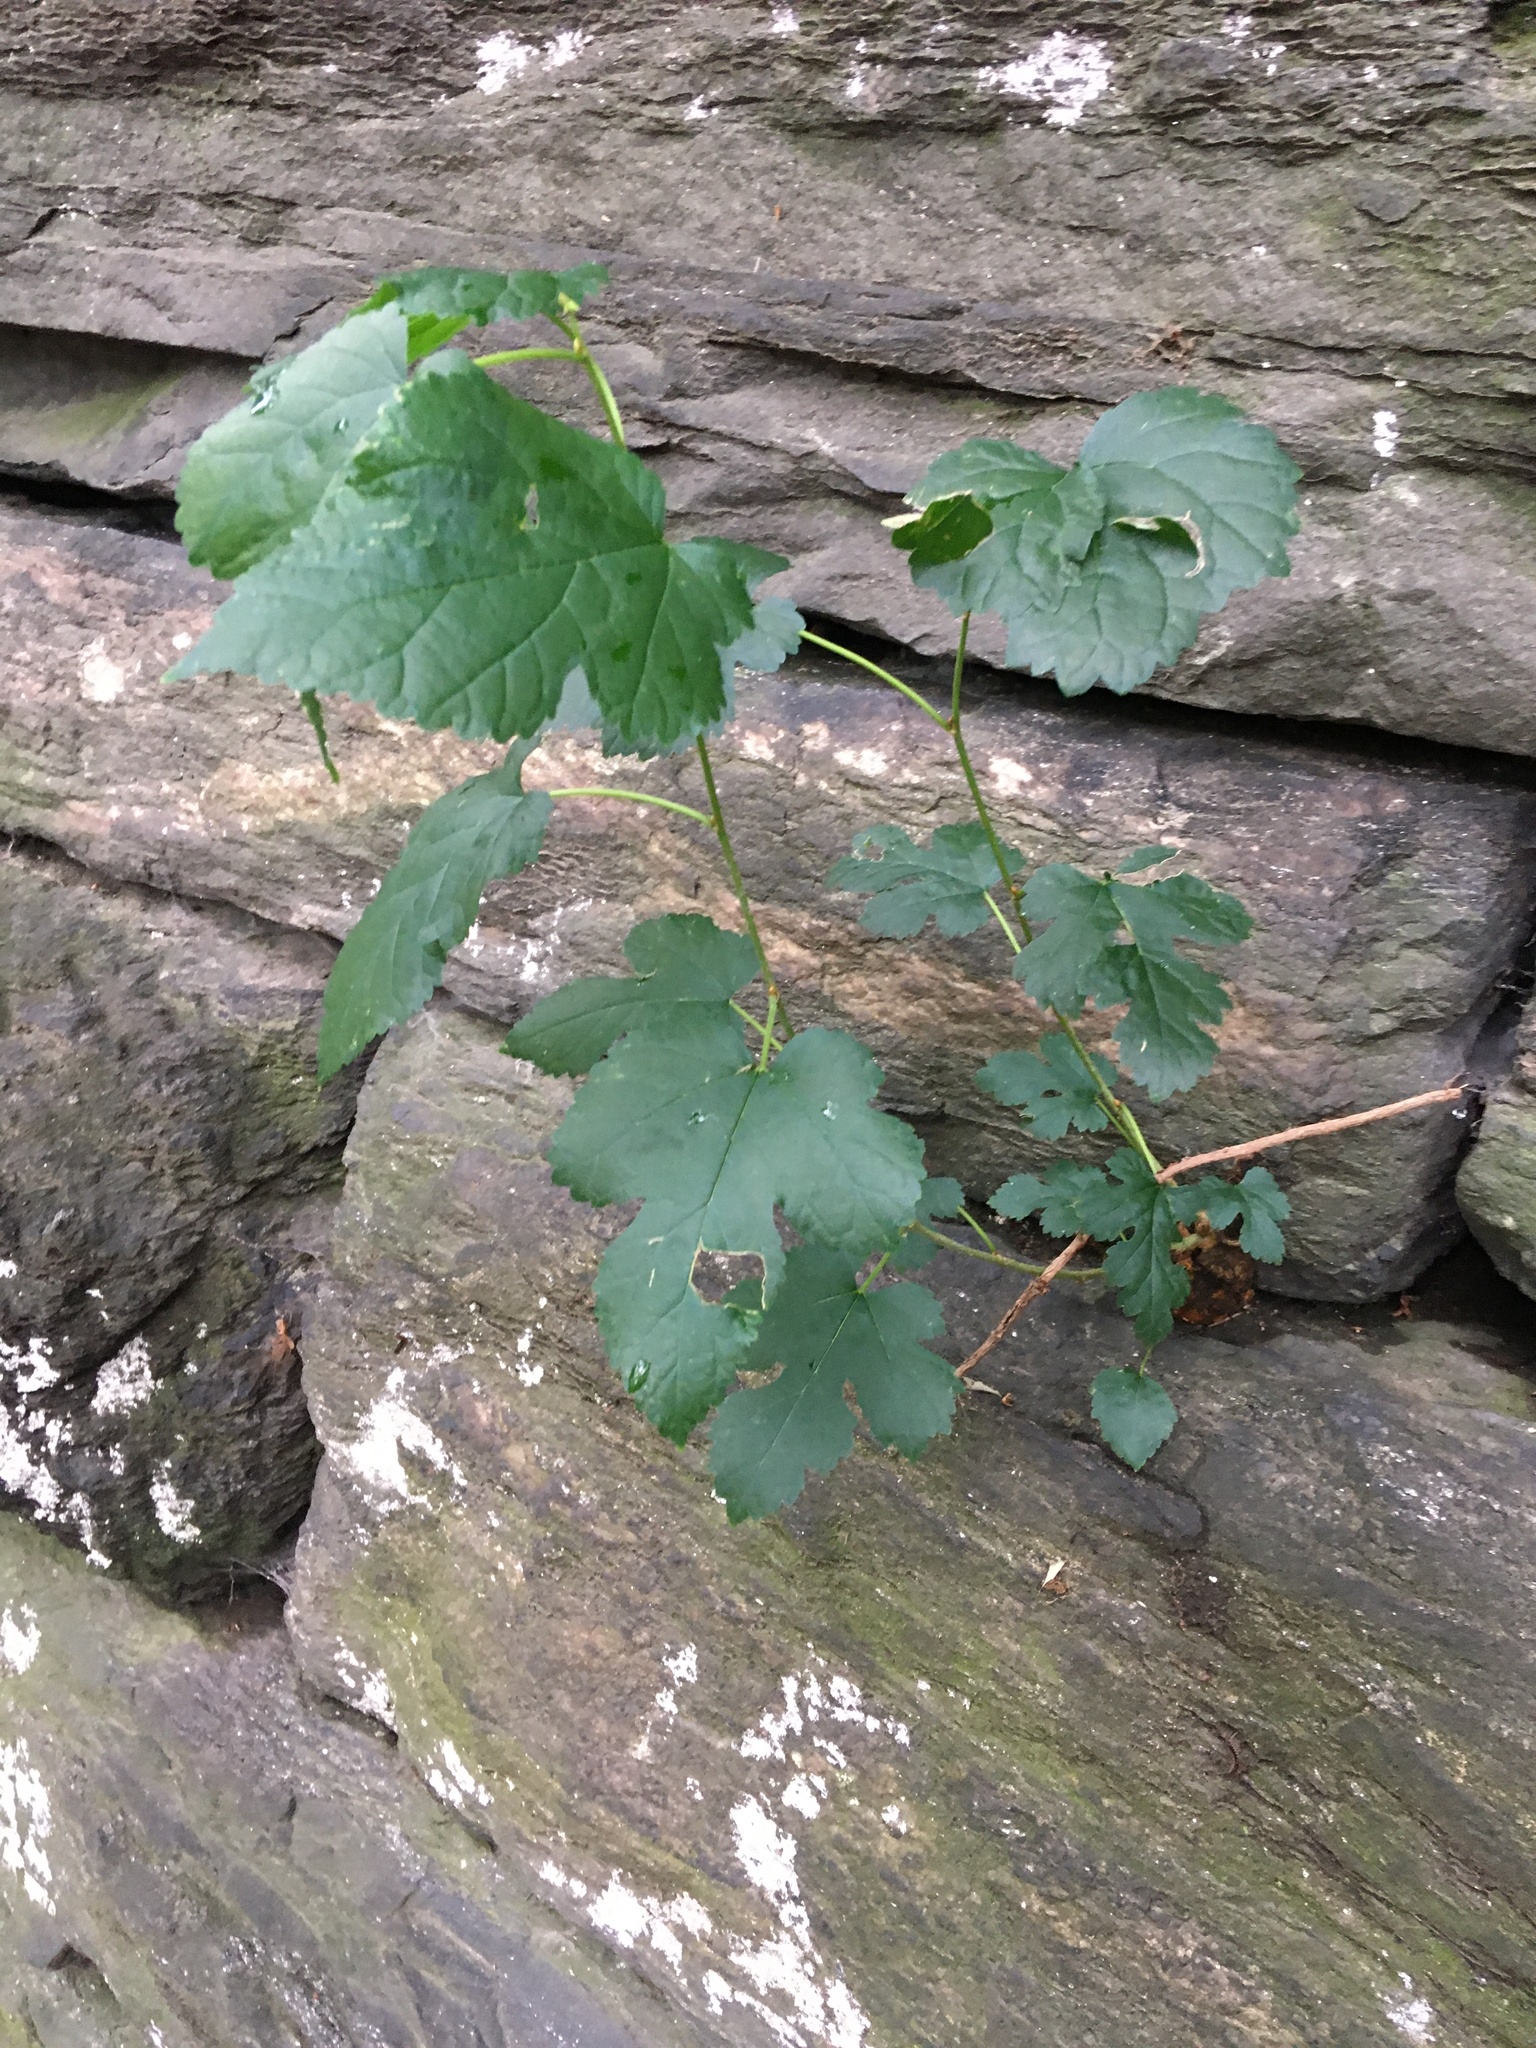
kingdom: Plantae
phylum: Tracheophyta
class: Magnoliopsida
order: Rosales
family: Moraceae
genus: Morus
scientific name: Morus alba
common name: White mulberry
